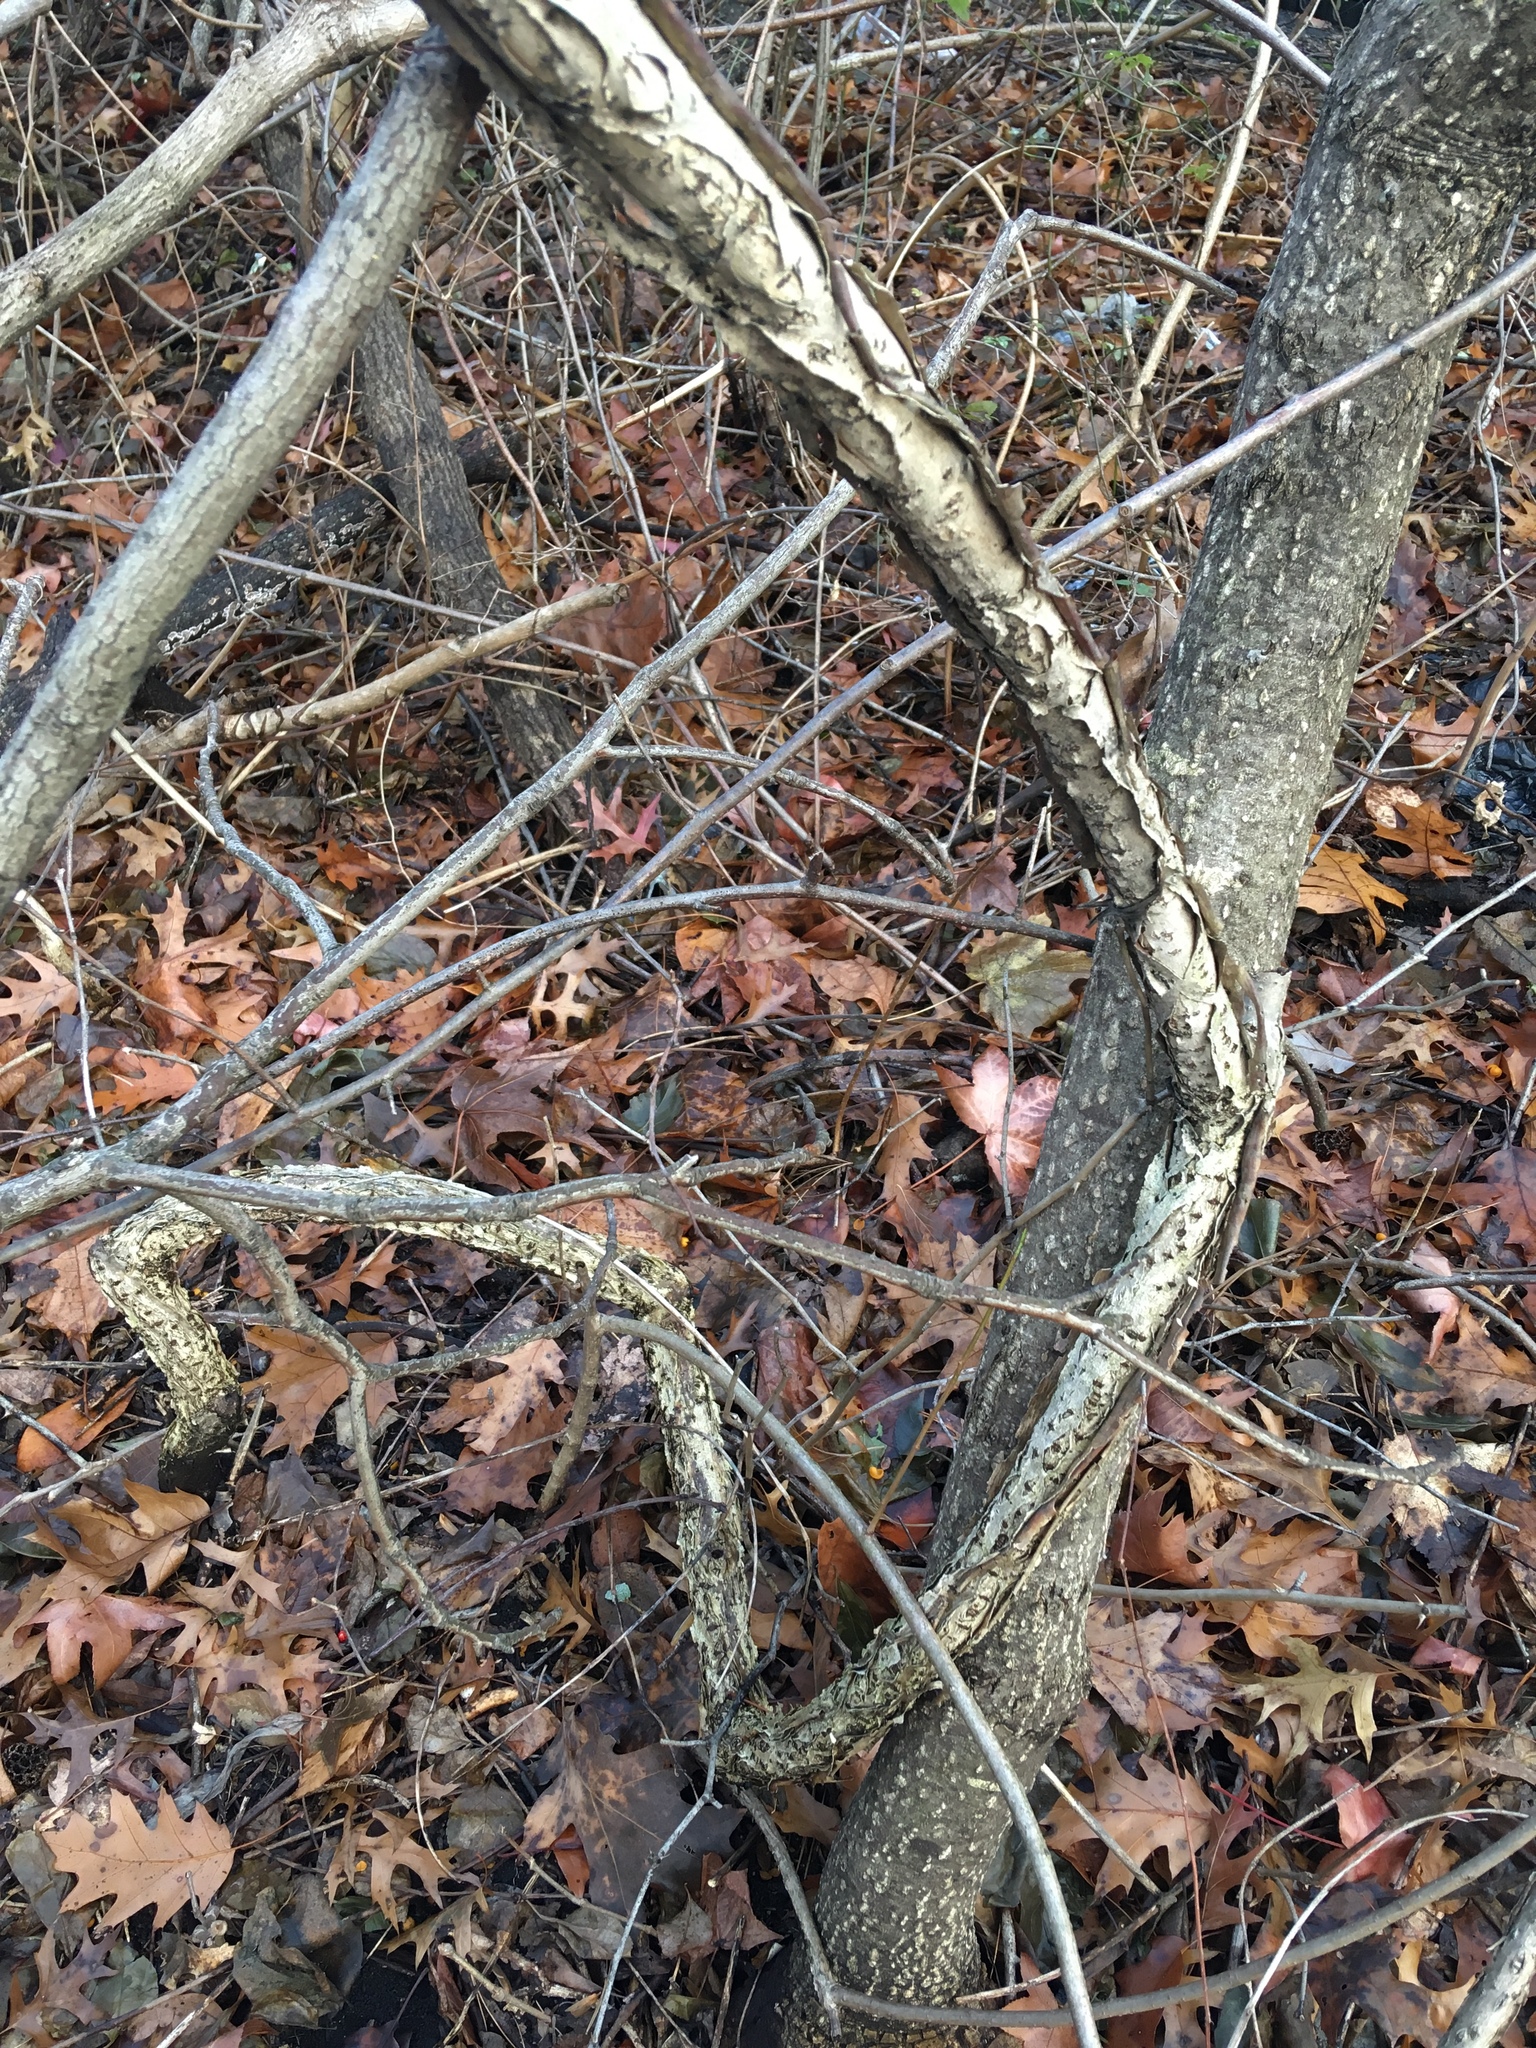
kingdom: Plantae
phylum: Tracheophyta
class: Magnoliopsida
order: Celastrales
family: Celastraceae
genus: Celastrus
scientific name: Celastrus orbiculatus
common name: Oriental bittersweet
